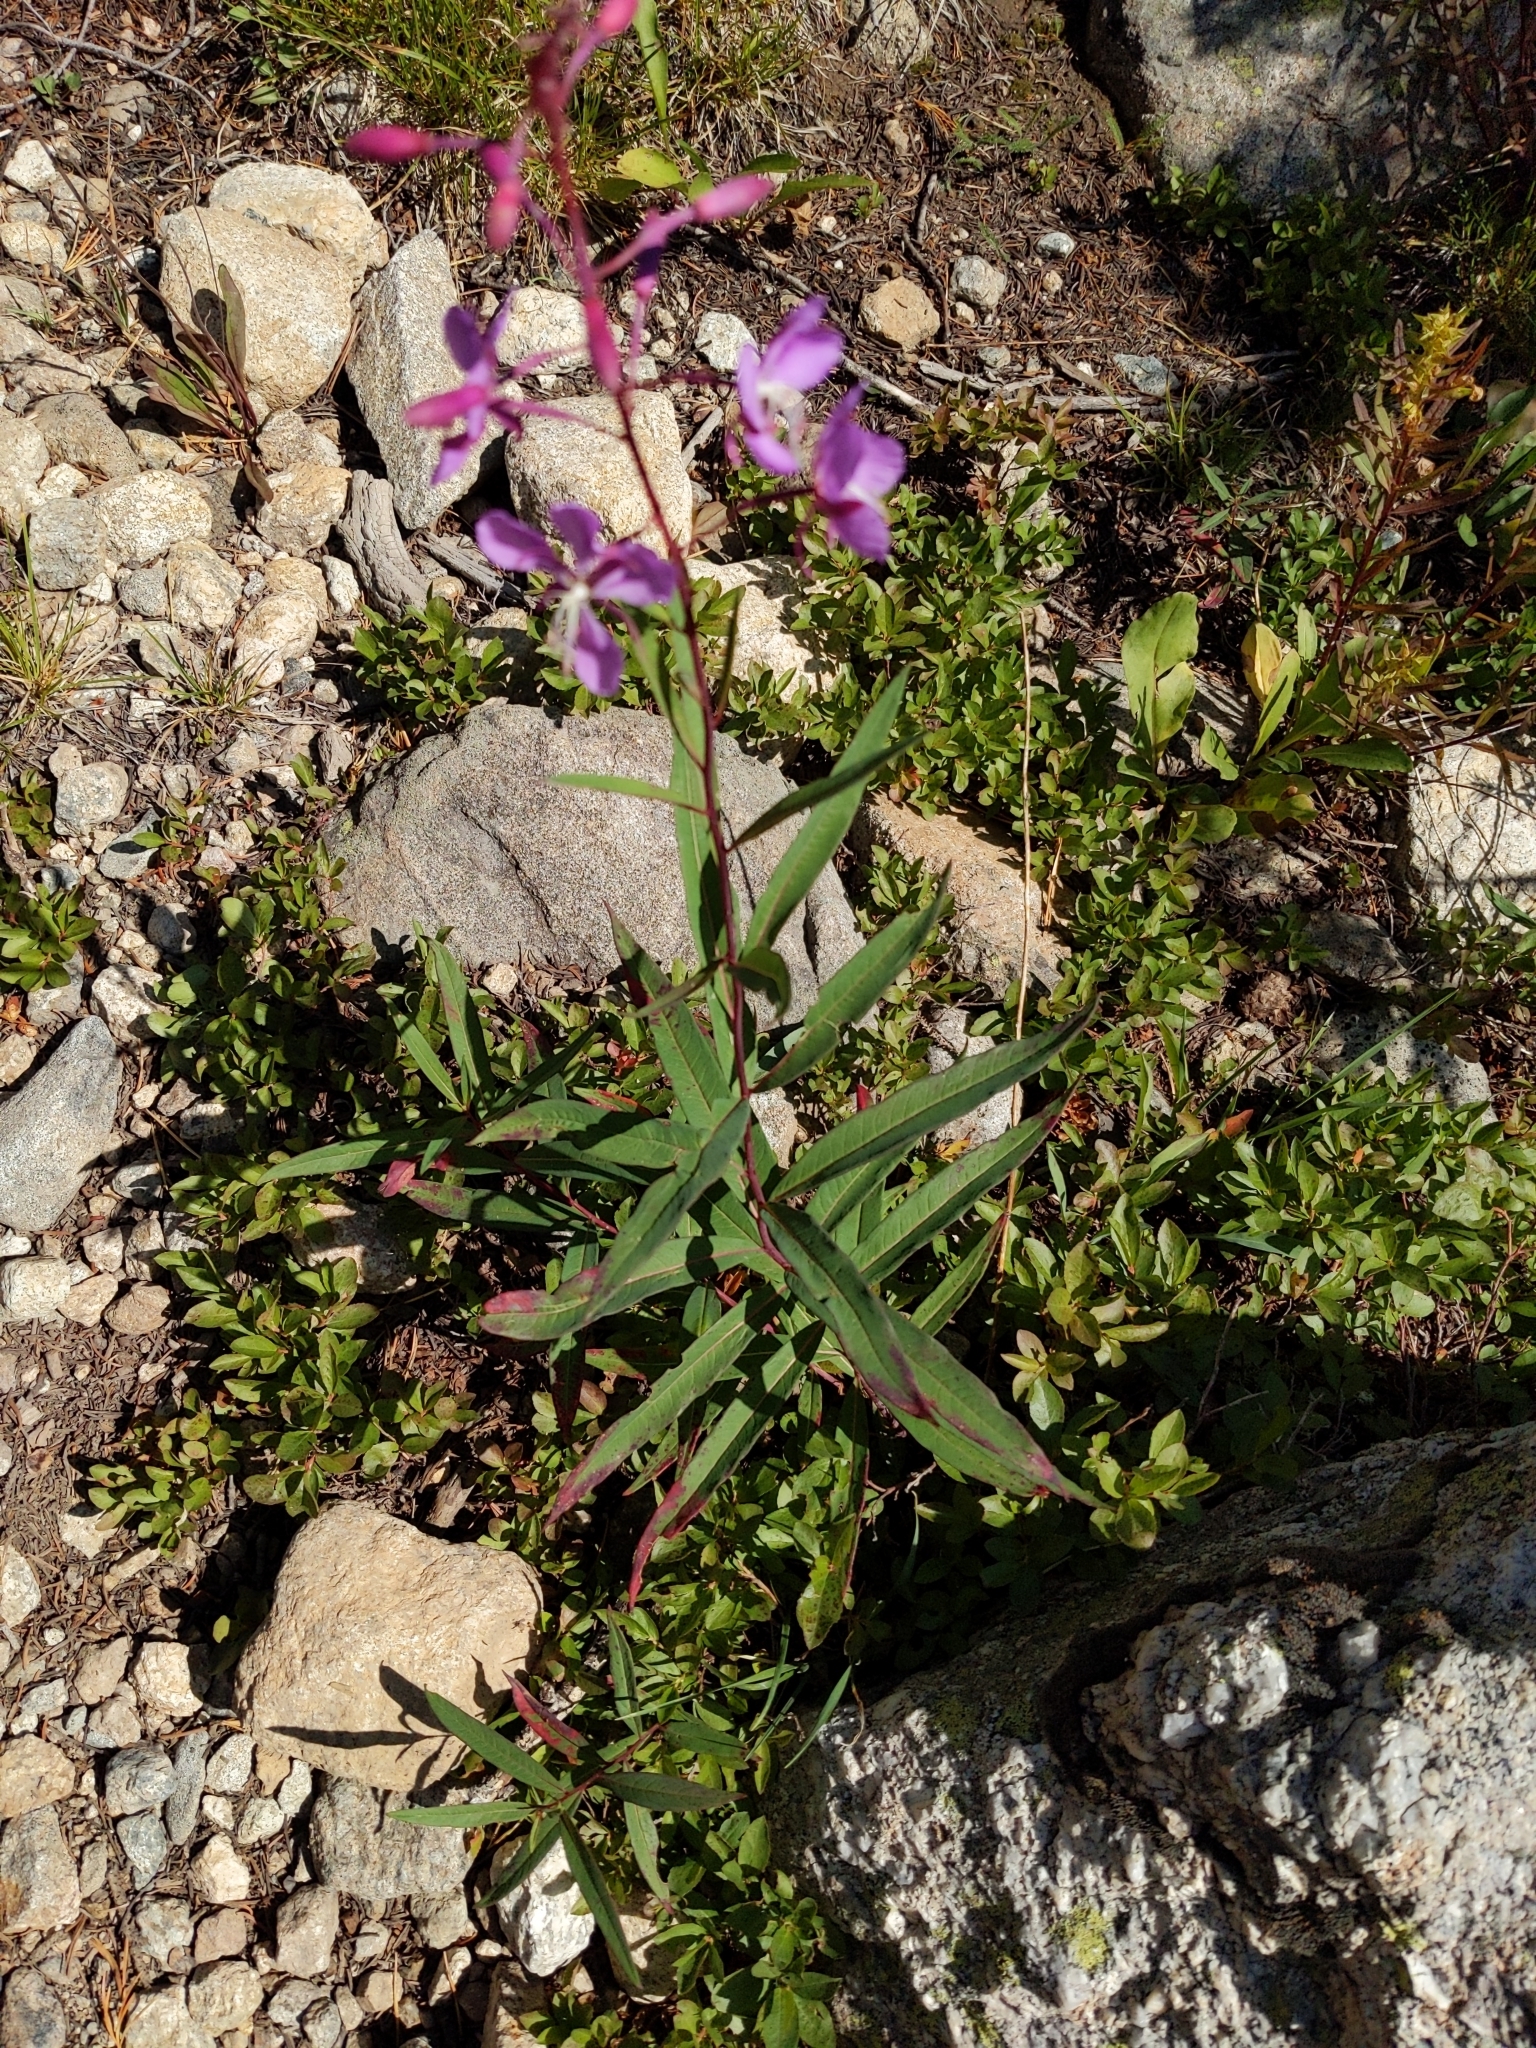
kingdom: Plantae
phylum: Tracheophyta
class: Magnoliopsida
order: Myrtales
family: Onagraceae
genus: Chamaenerion
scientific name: Chamaenerion angustifolium
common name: Fireweed
